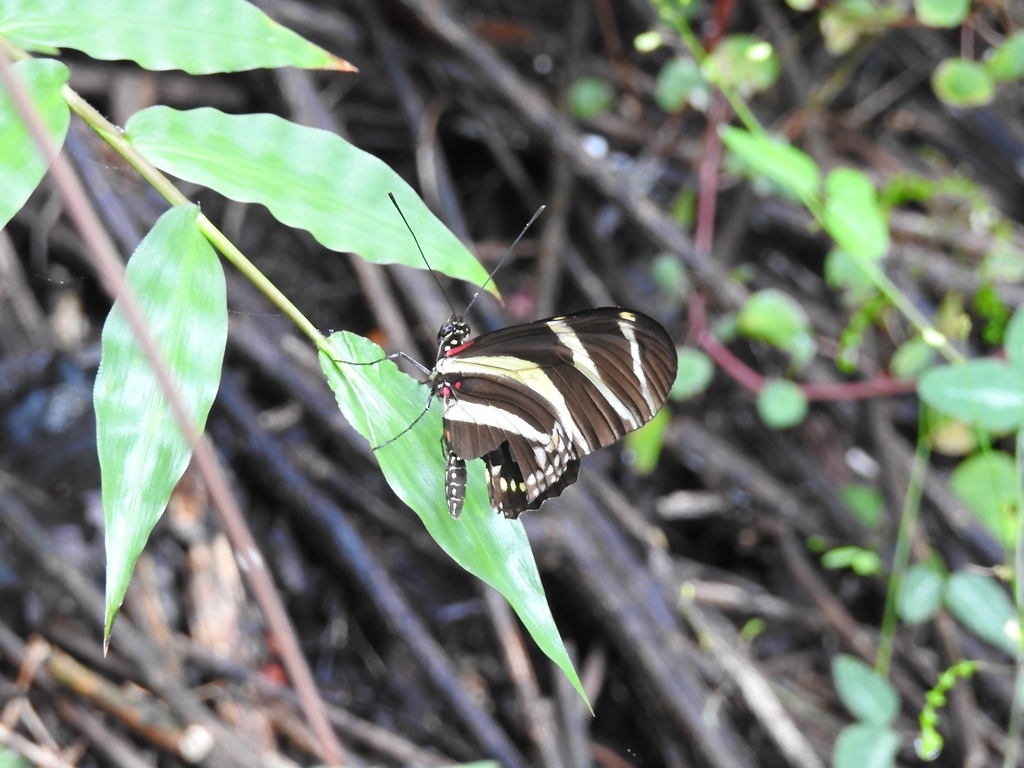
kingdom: Animalia
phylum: Arthropoda
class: Insecta
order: Lepidoptera
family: Nymphalidae
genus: Heliconius
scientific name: Heliconius charithonia
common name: Zebra long wing
